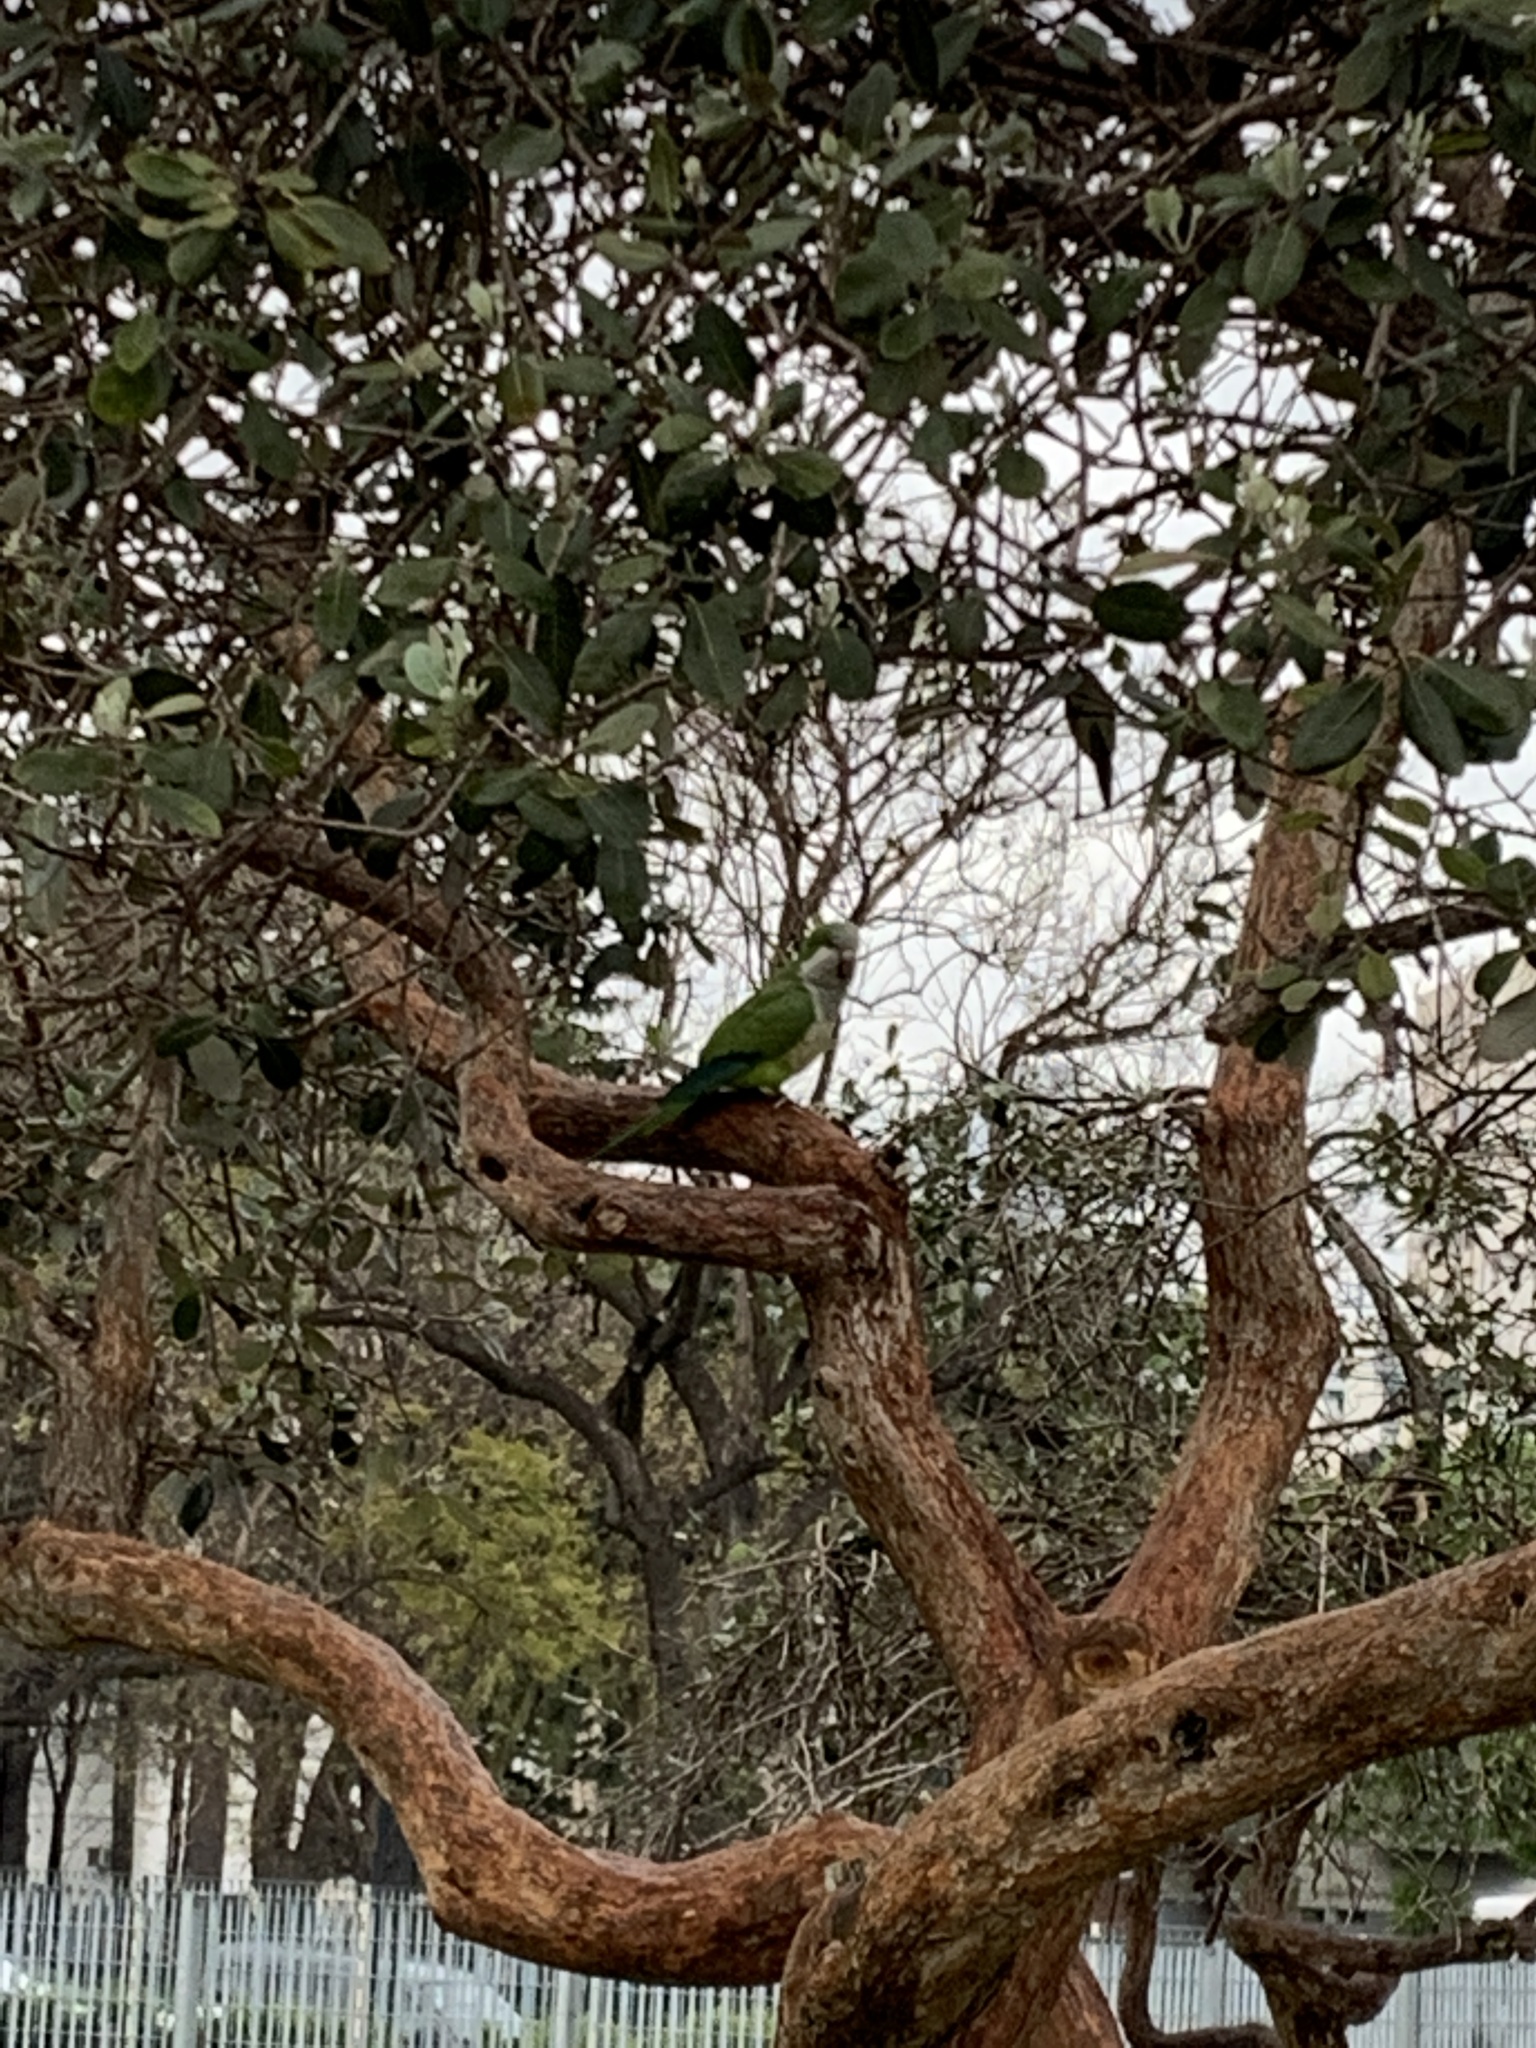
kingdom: Animalia
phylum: Chordata
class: Aves
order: Psittaciformes
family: Psittacidae
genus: Myiopsitta
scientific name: Myiopsitta monachus
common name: Monk parakeet
